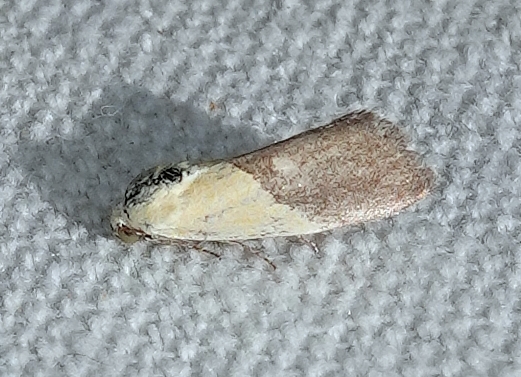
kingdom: Animalia
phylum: Arthropoda
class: Insecta
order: Lepidoptera
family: Noctuidae
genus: Acontia
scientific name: Acontia semiflava
